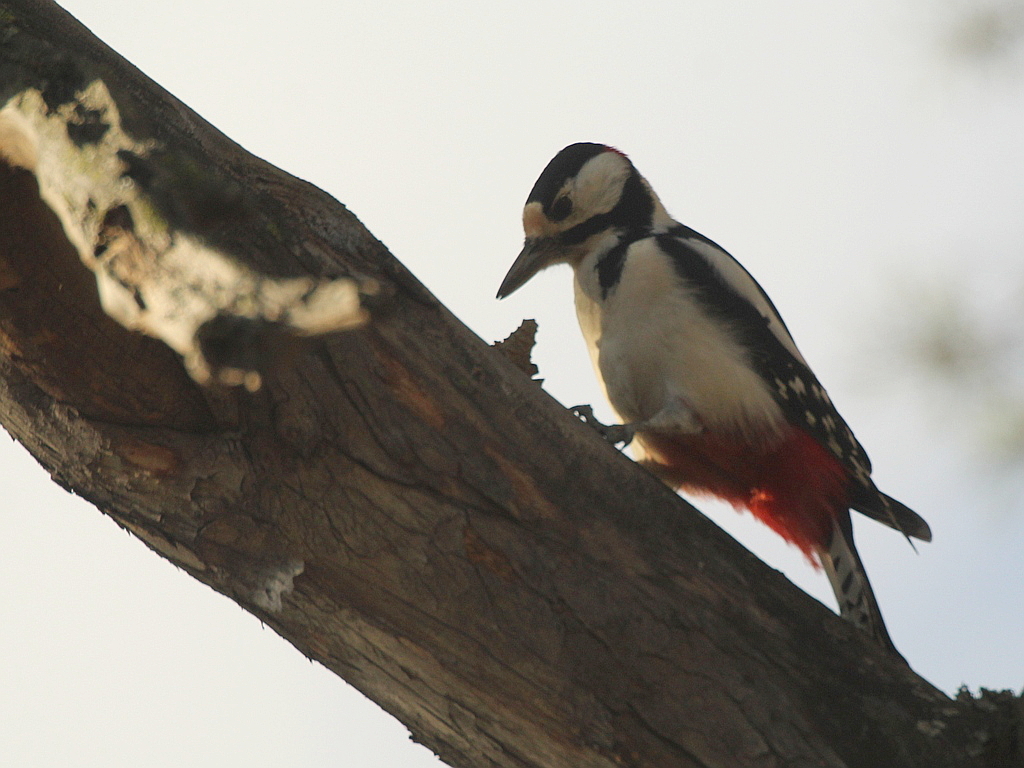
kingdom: Animalia
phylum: Chordata
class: Aves
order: Piciformes
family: Picidae
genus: Dendrocopos
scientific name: Dendrocopos major
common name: Great spotted woodpecker
